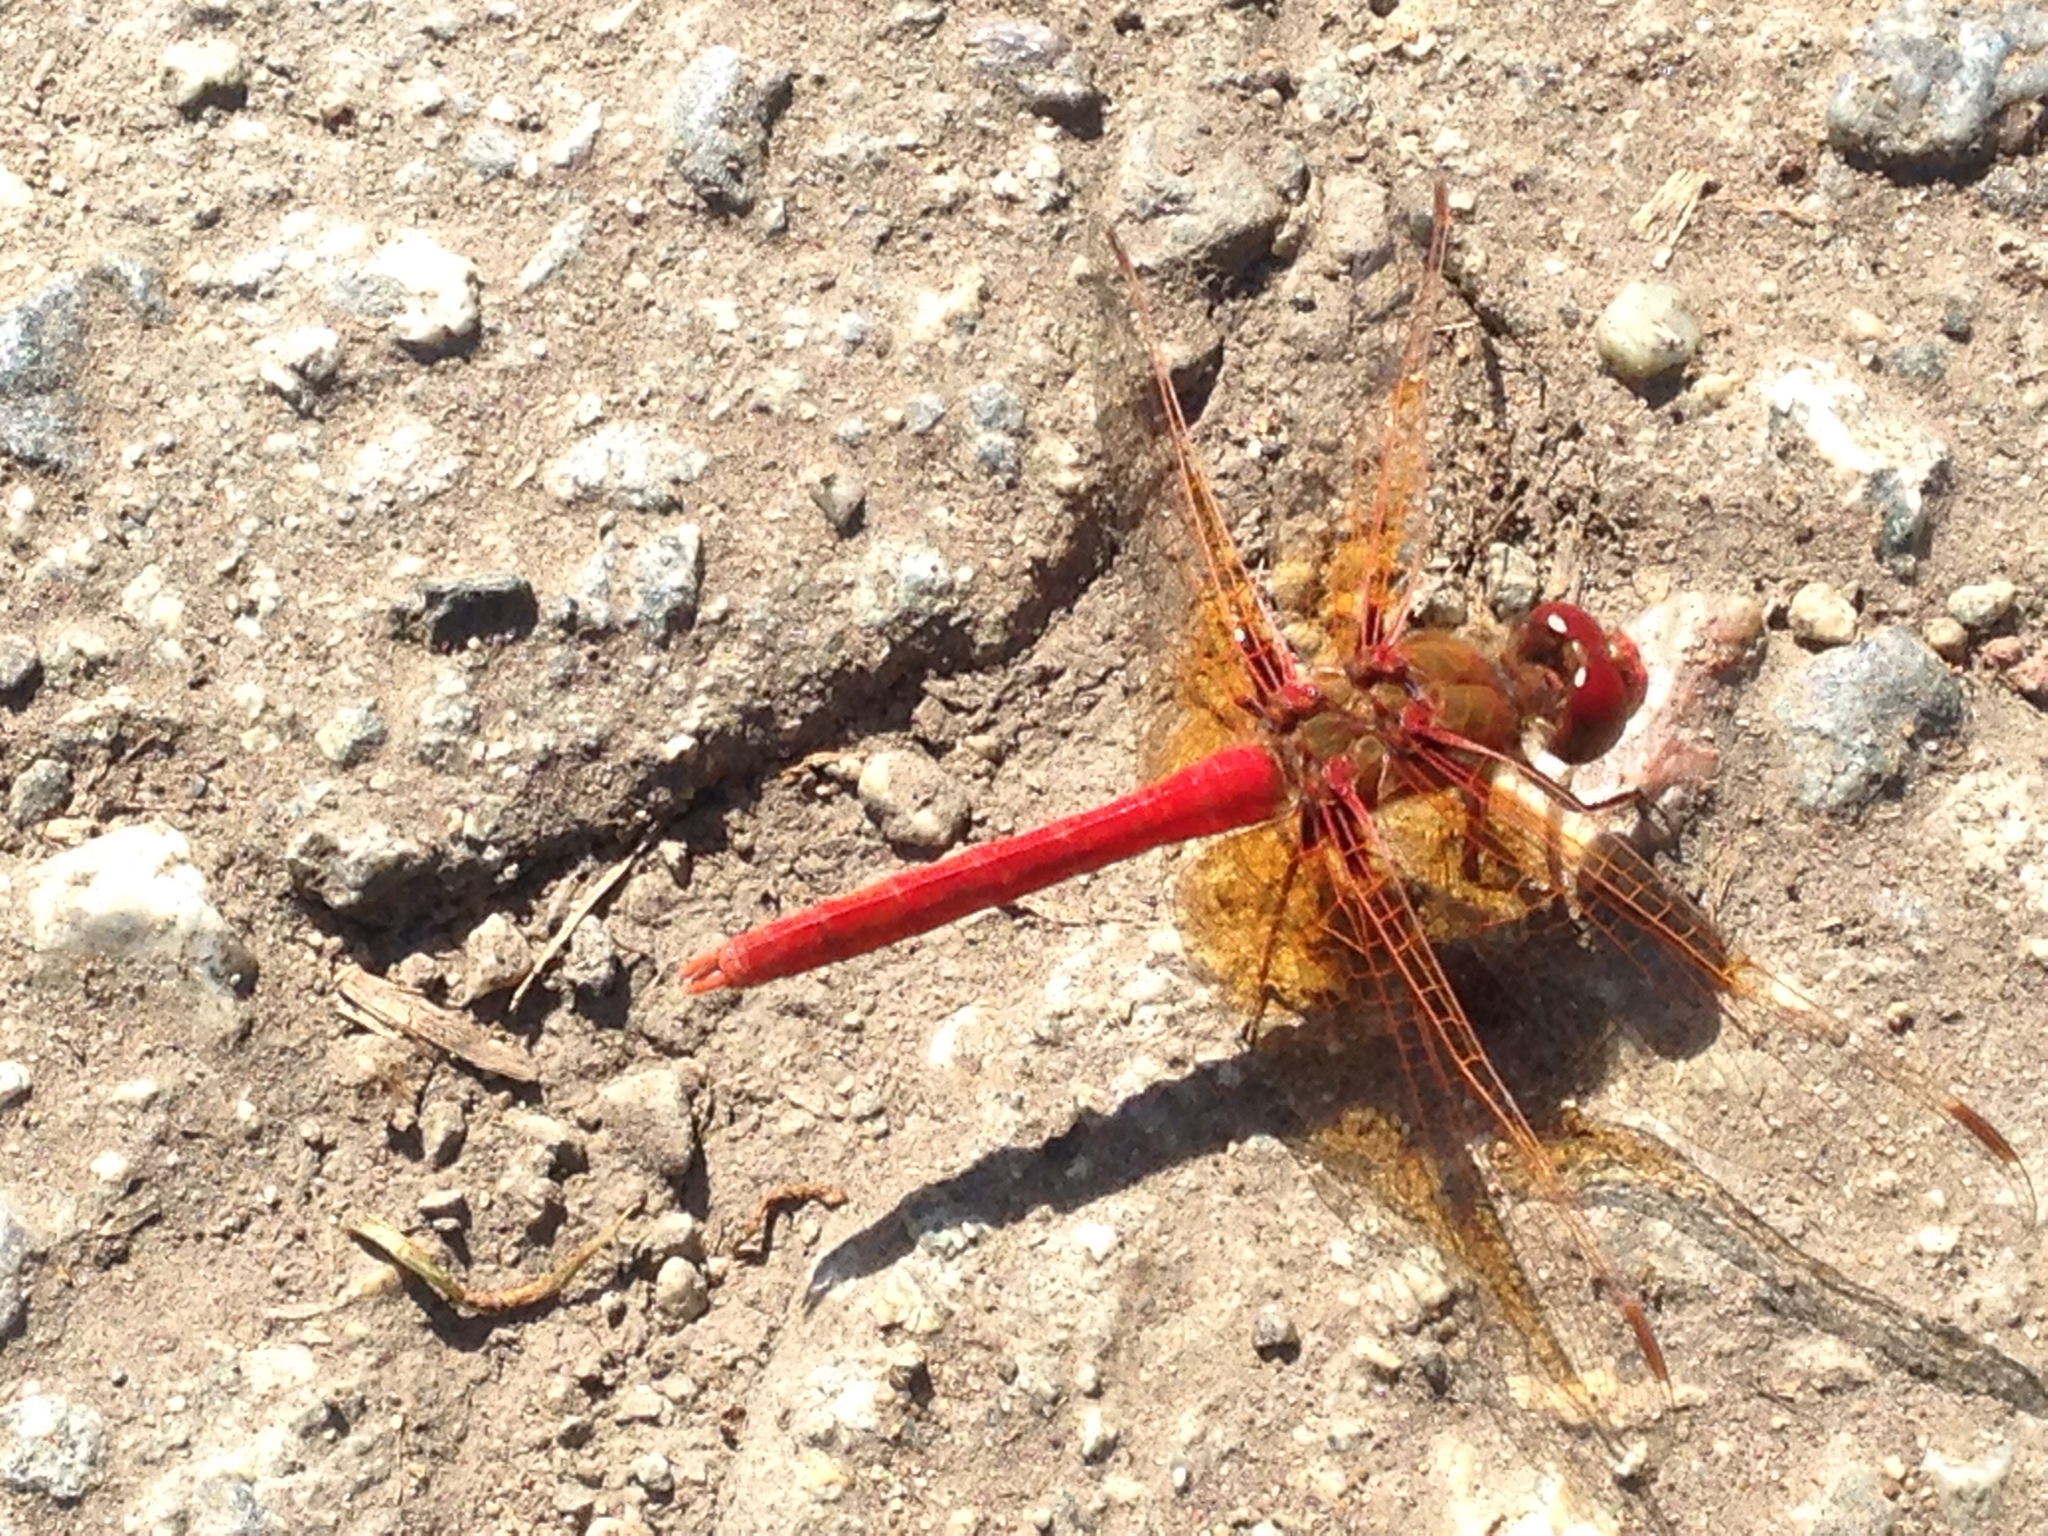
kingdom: Animalia
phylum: Arthropoda
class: Insecta
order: Odonata
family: Libellulidae
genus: Sympetrum
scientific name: Sympetrum illotum
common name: Cardinal meadowhawk
